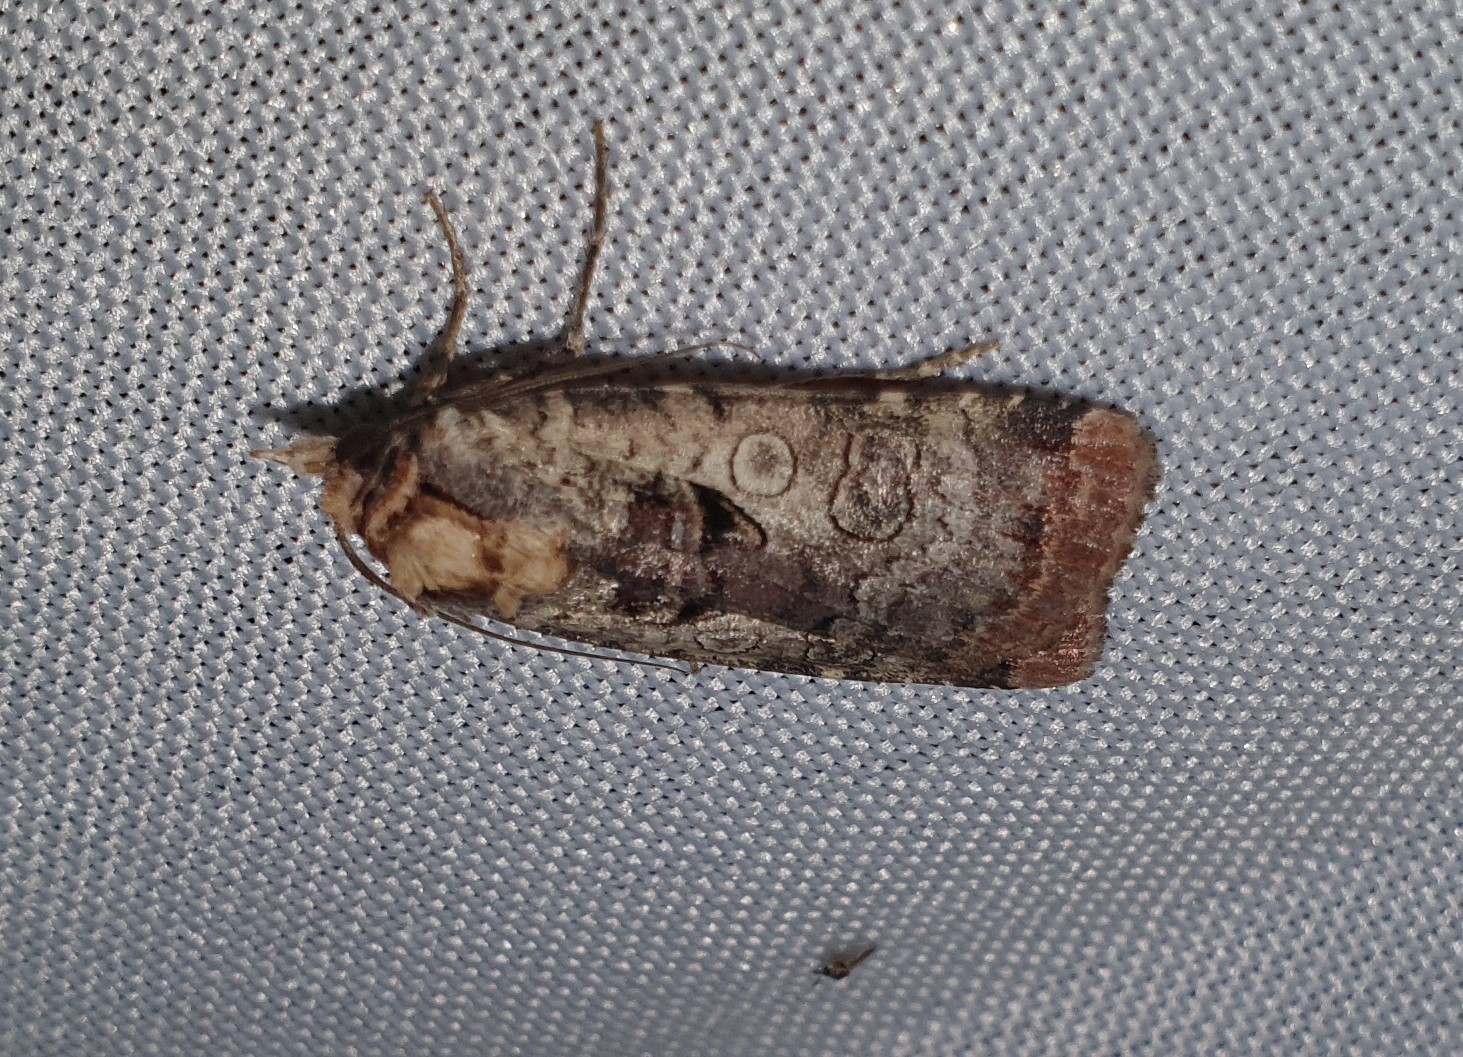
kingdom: Animalia
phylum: Arthropoda
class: Insecta
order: Lepidoptera
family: Noctuidae
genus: Epilecta
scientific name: Epilecta linogrisea
